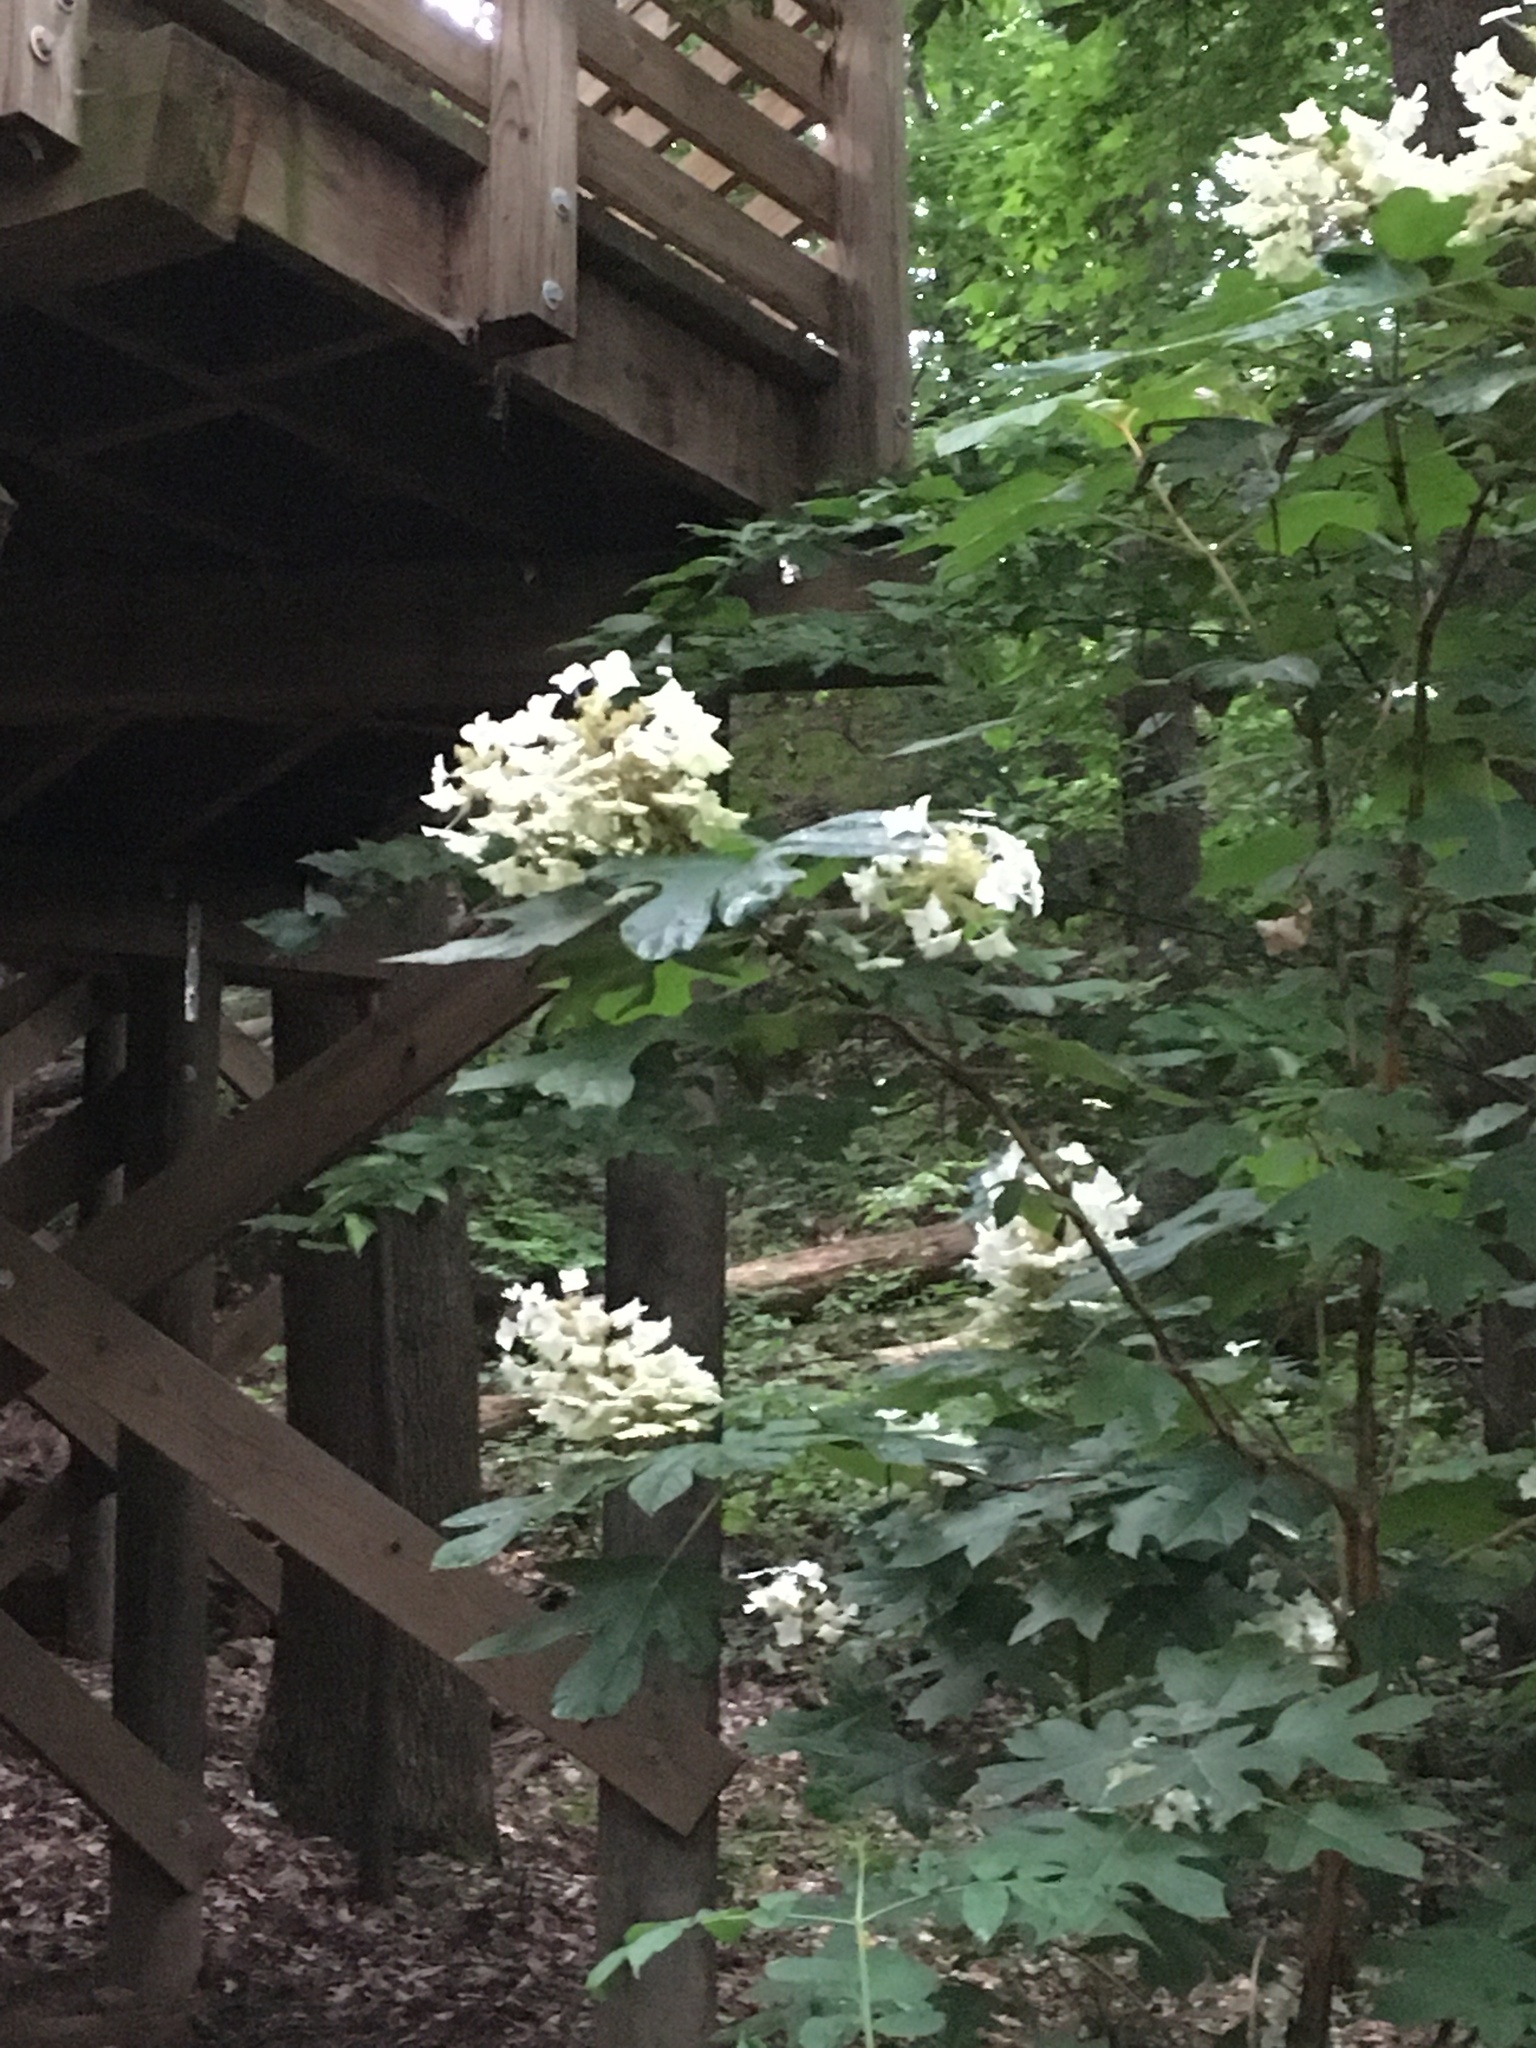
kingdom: Plantae
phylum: Tracheophyta
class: Magnoliopsida
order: Cornales
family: Hydrangeaceae
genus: Hydrangea
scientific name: Hydrangea quercifolia
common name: Oak-leaf hydrangea
